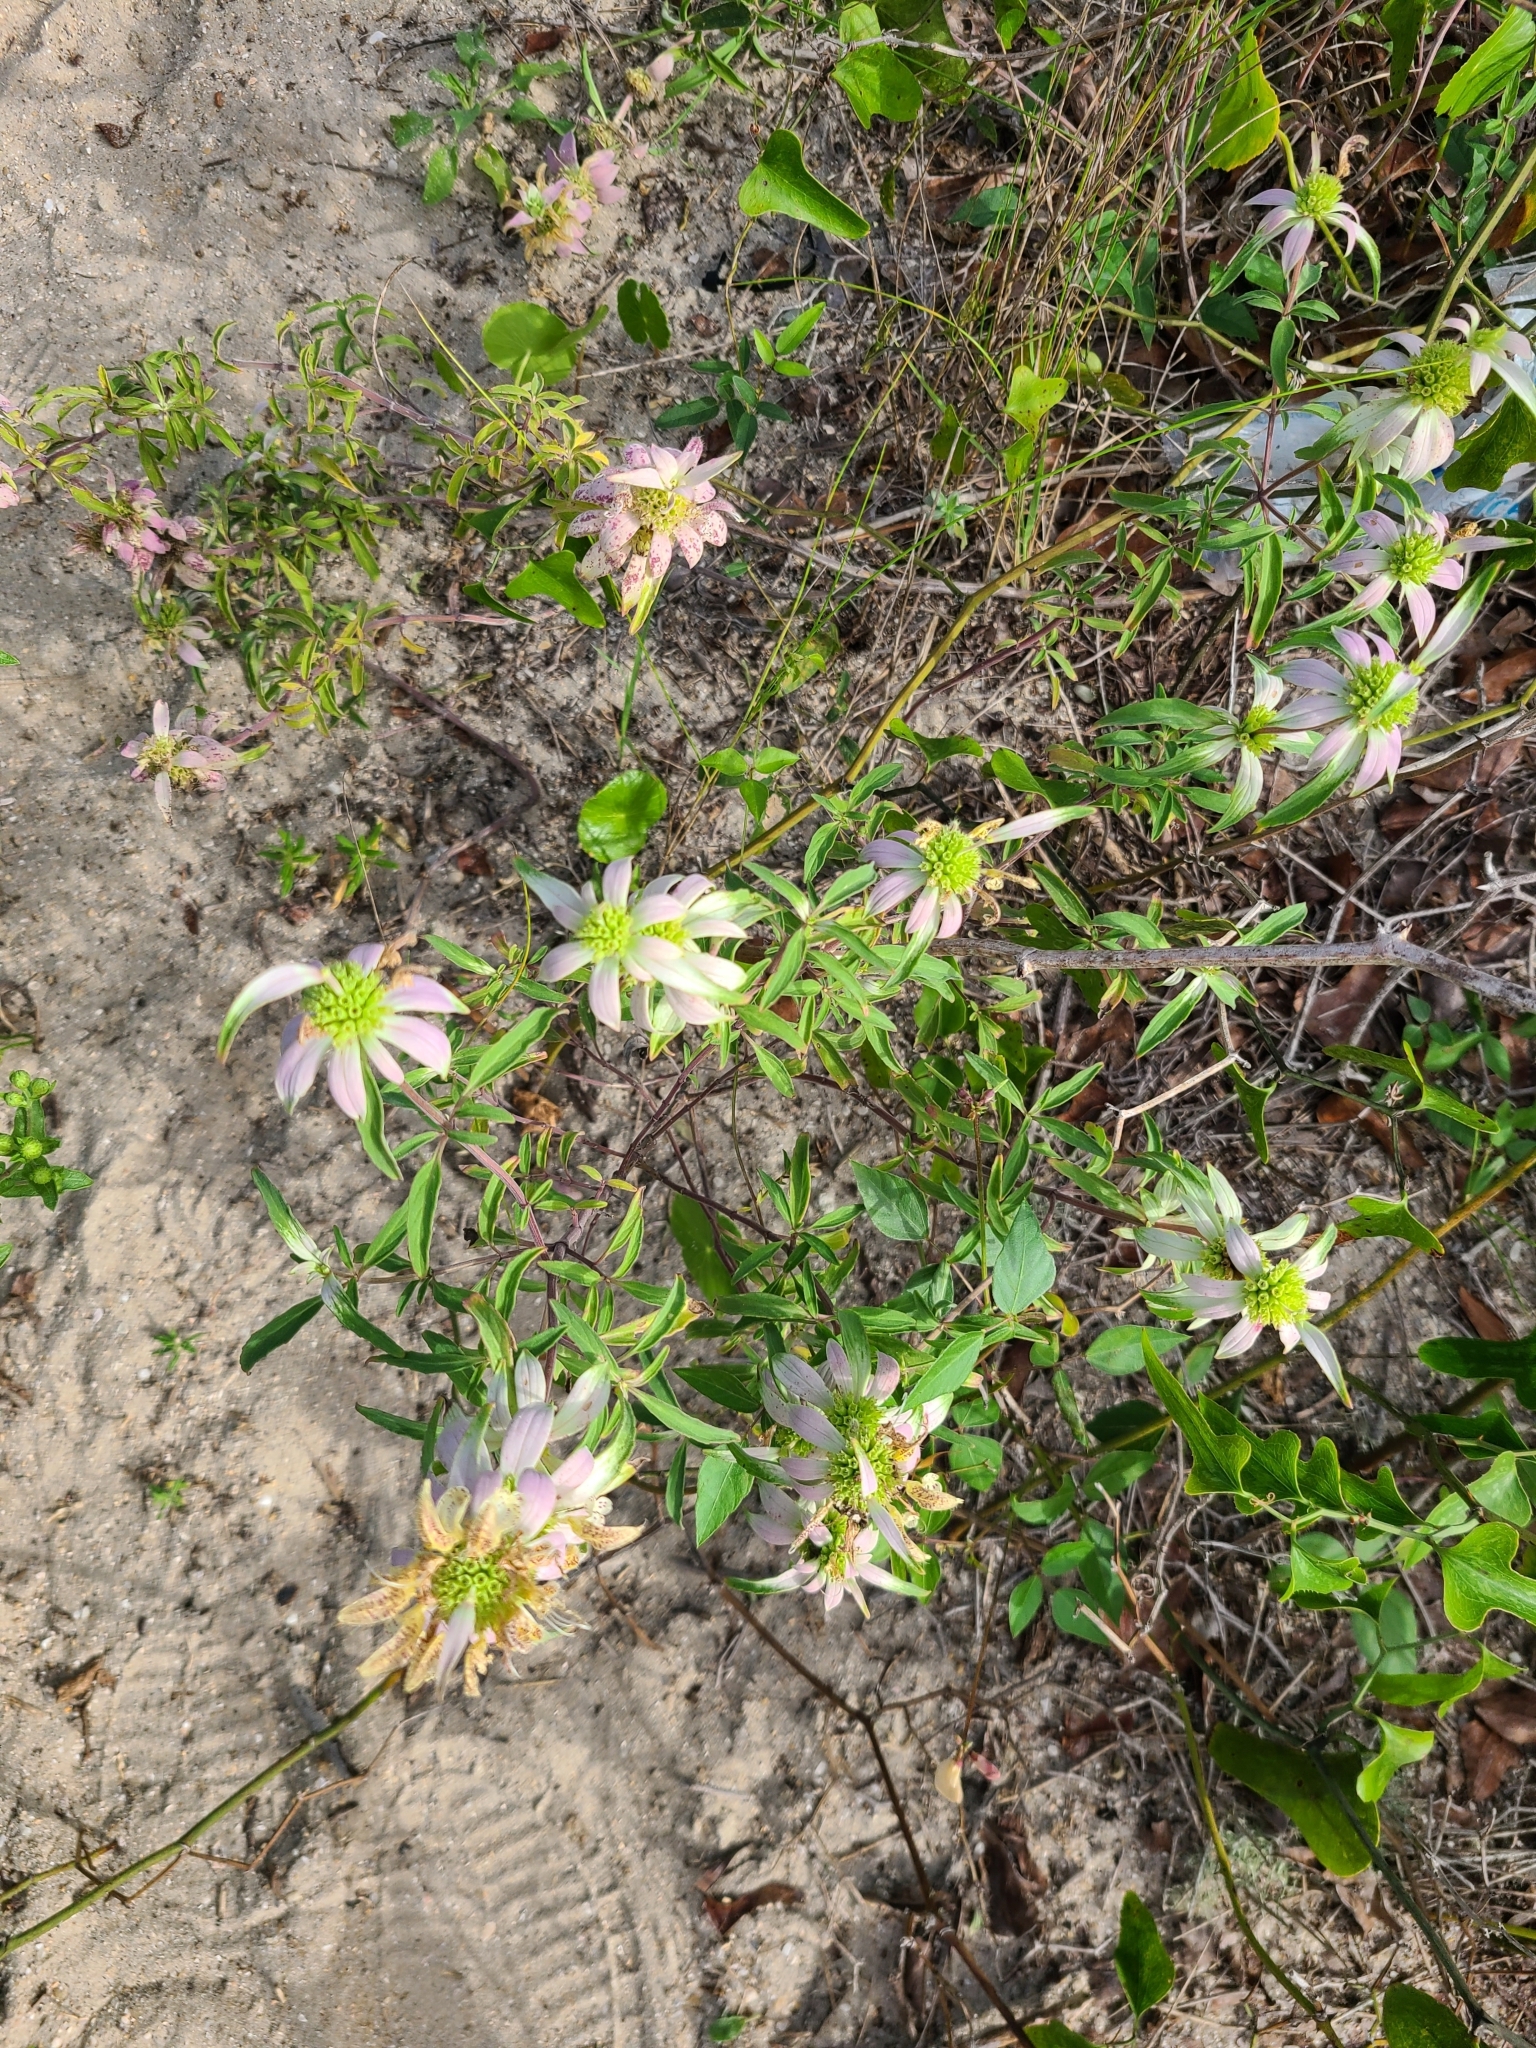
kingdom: Plantae
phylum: Tracheophyta
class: Magnoliopsida
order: Lamiales
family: Lamiaceae
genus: Monarda
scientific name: Monarda punctata
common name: Dotted monarda
